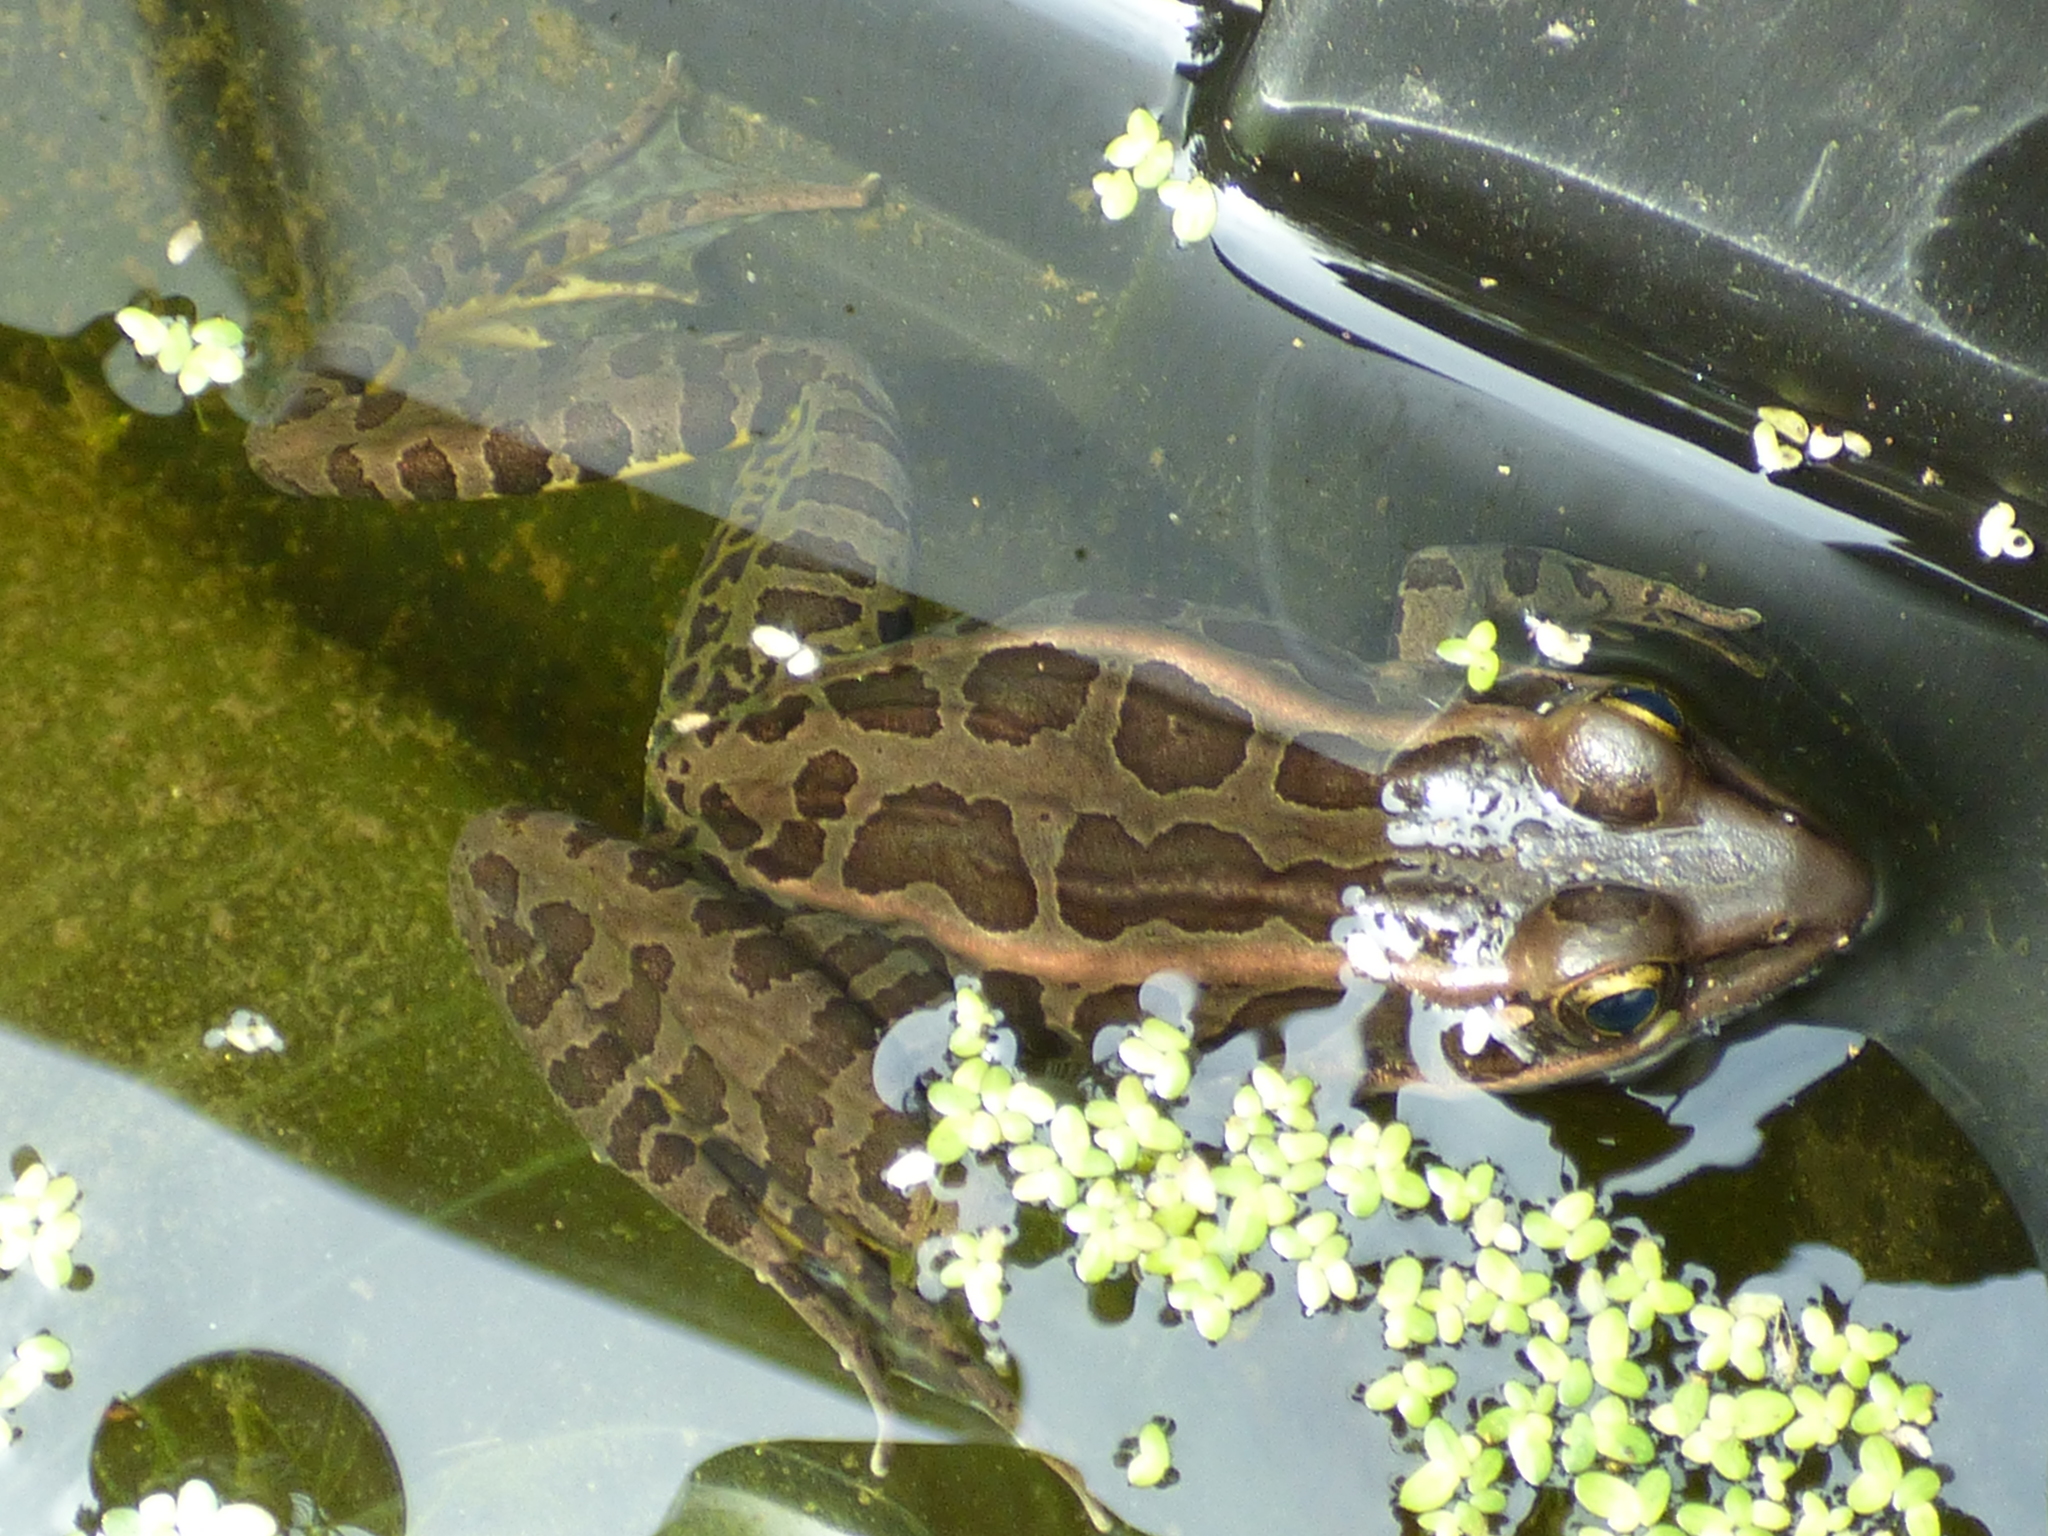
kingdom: Animalia
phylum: Chordata
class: Amphibia
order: Anura
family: Ranidae
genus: Lithobates
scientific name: Lithobates palustris
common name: Pickerel frog
